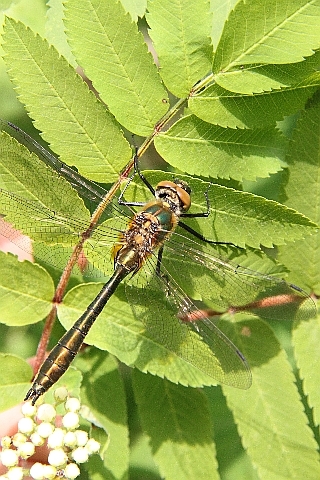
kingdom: Animalia
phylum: Arthropoda
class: Insecta
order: Odonata
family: Corduliidae
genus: Cordulia
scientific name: Cordulia aenea
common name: Downy emerald
